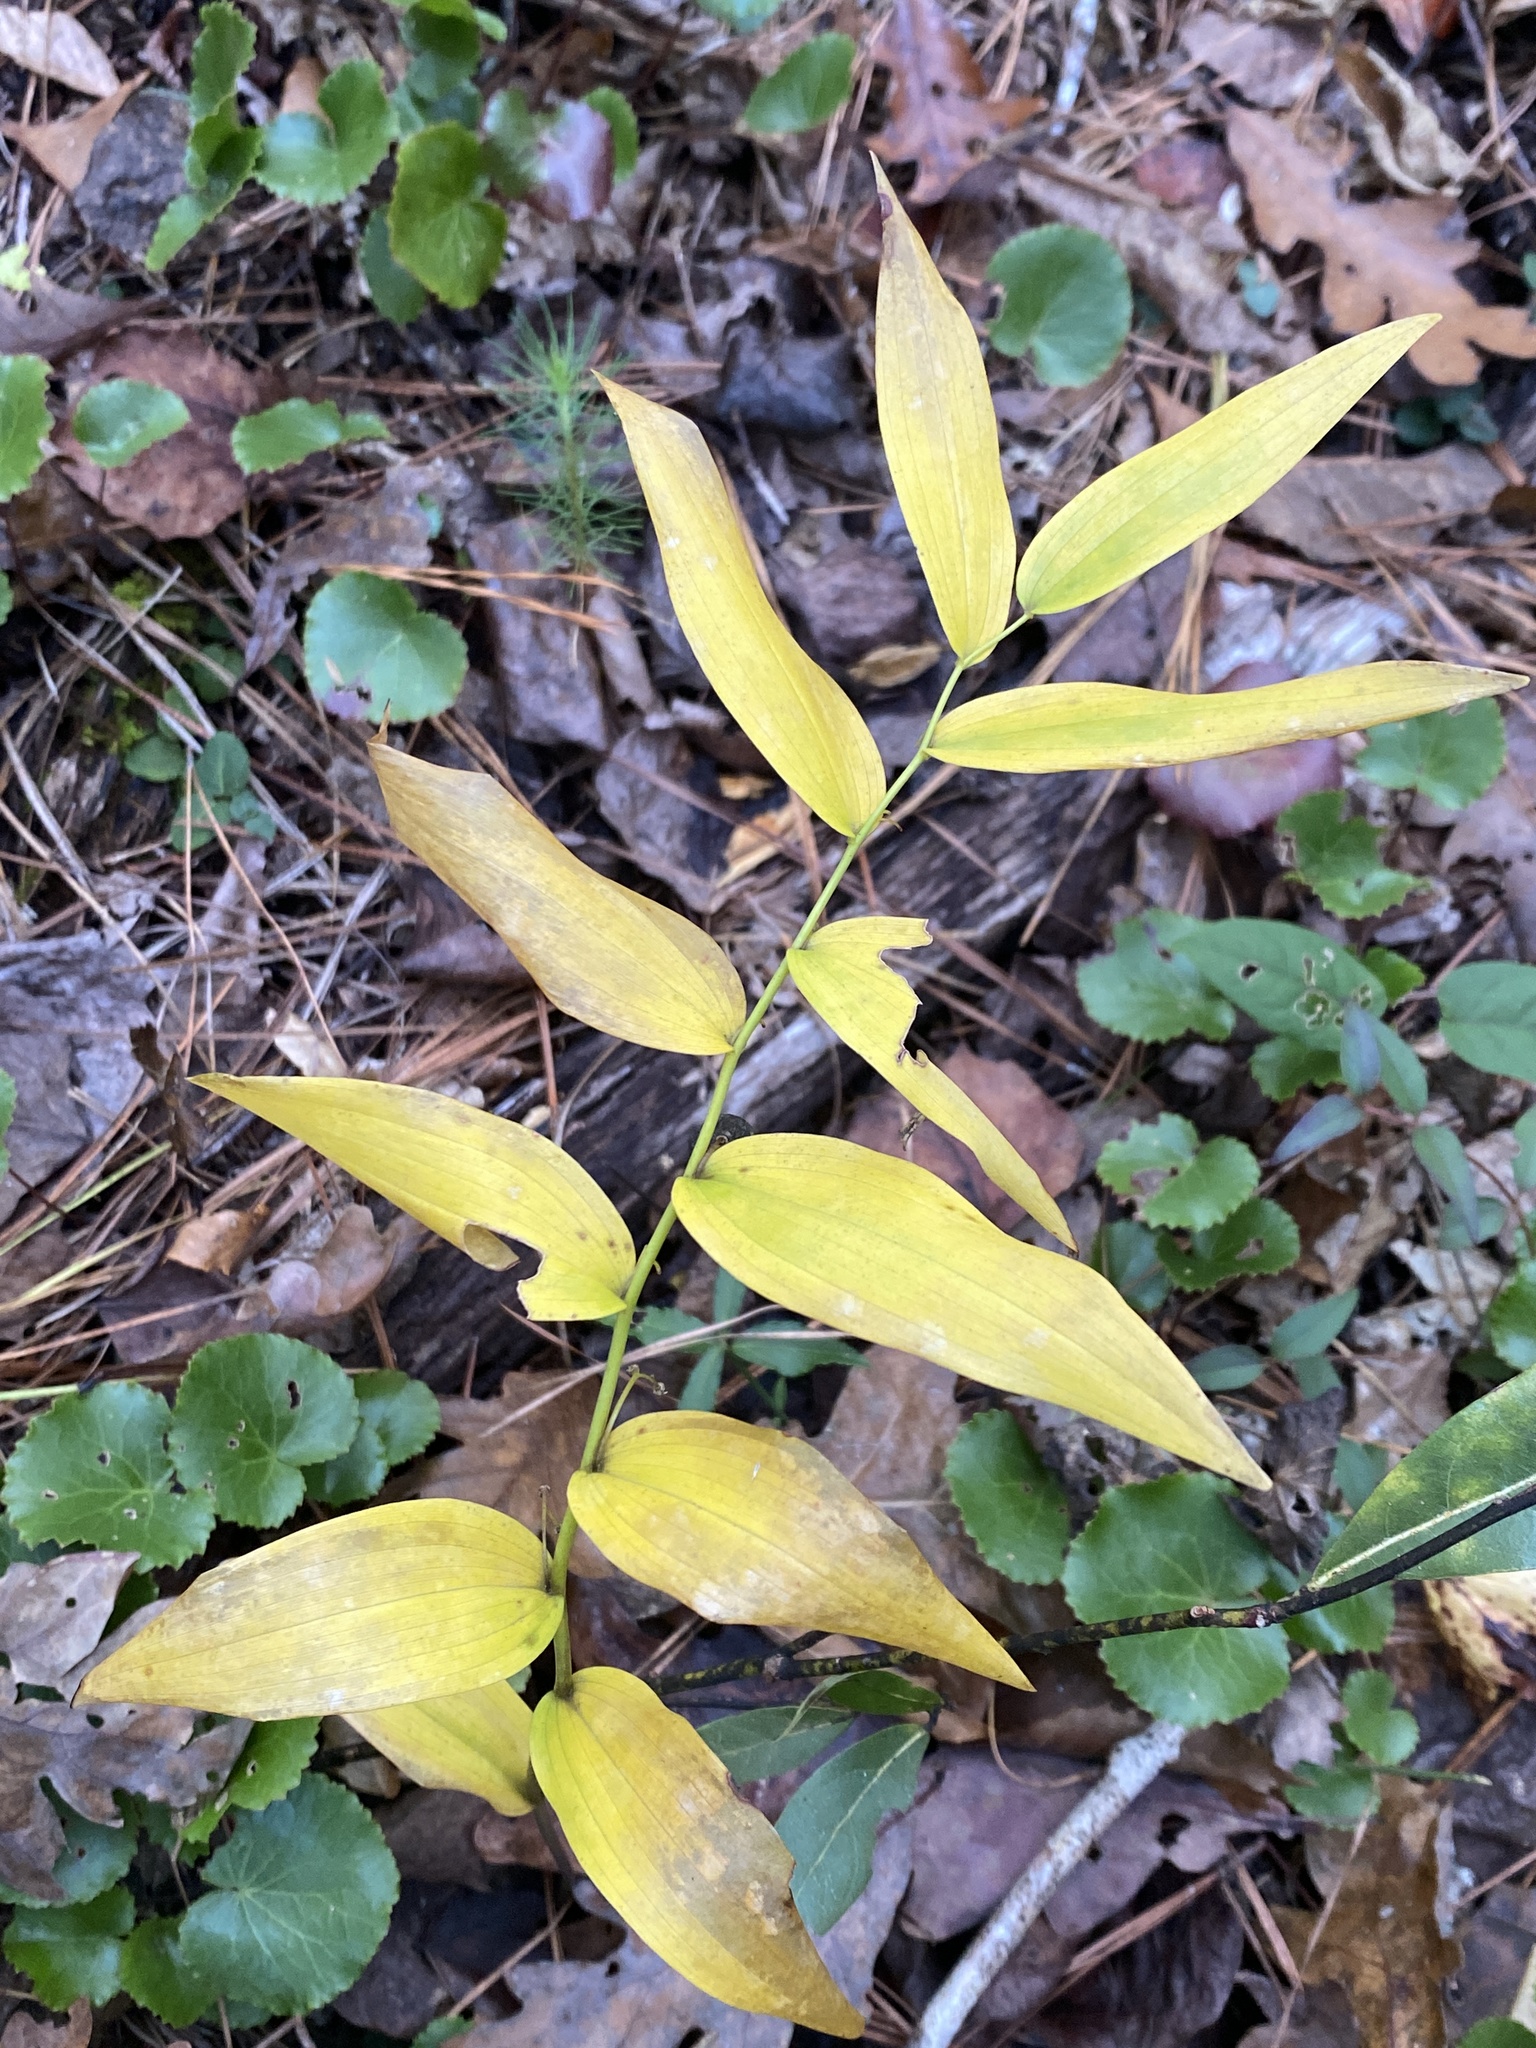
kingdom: Plantae
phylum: Tracheophyta
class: Liliopsida
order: Asparagales
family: Asparagaceae
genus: Polygonatum
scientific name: Polygonatum biflorum
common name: American solomon's-seal
